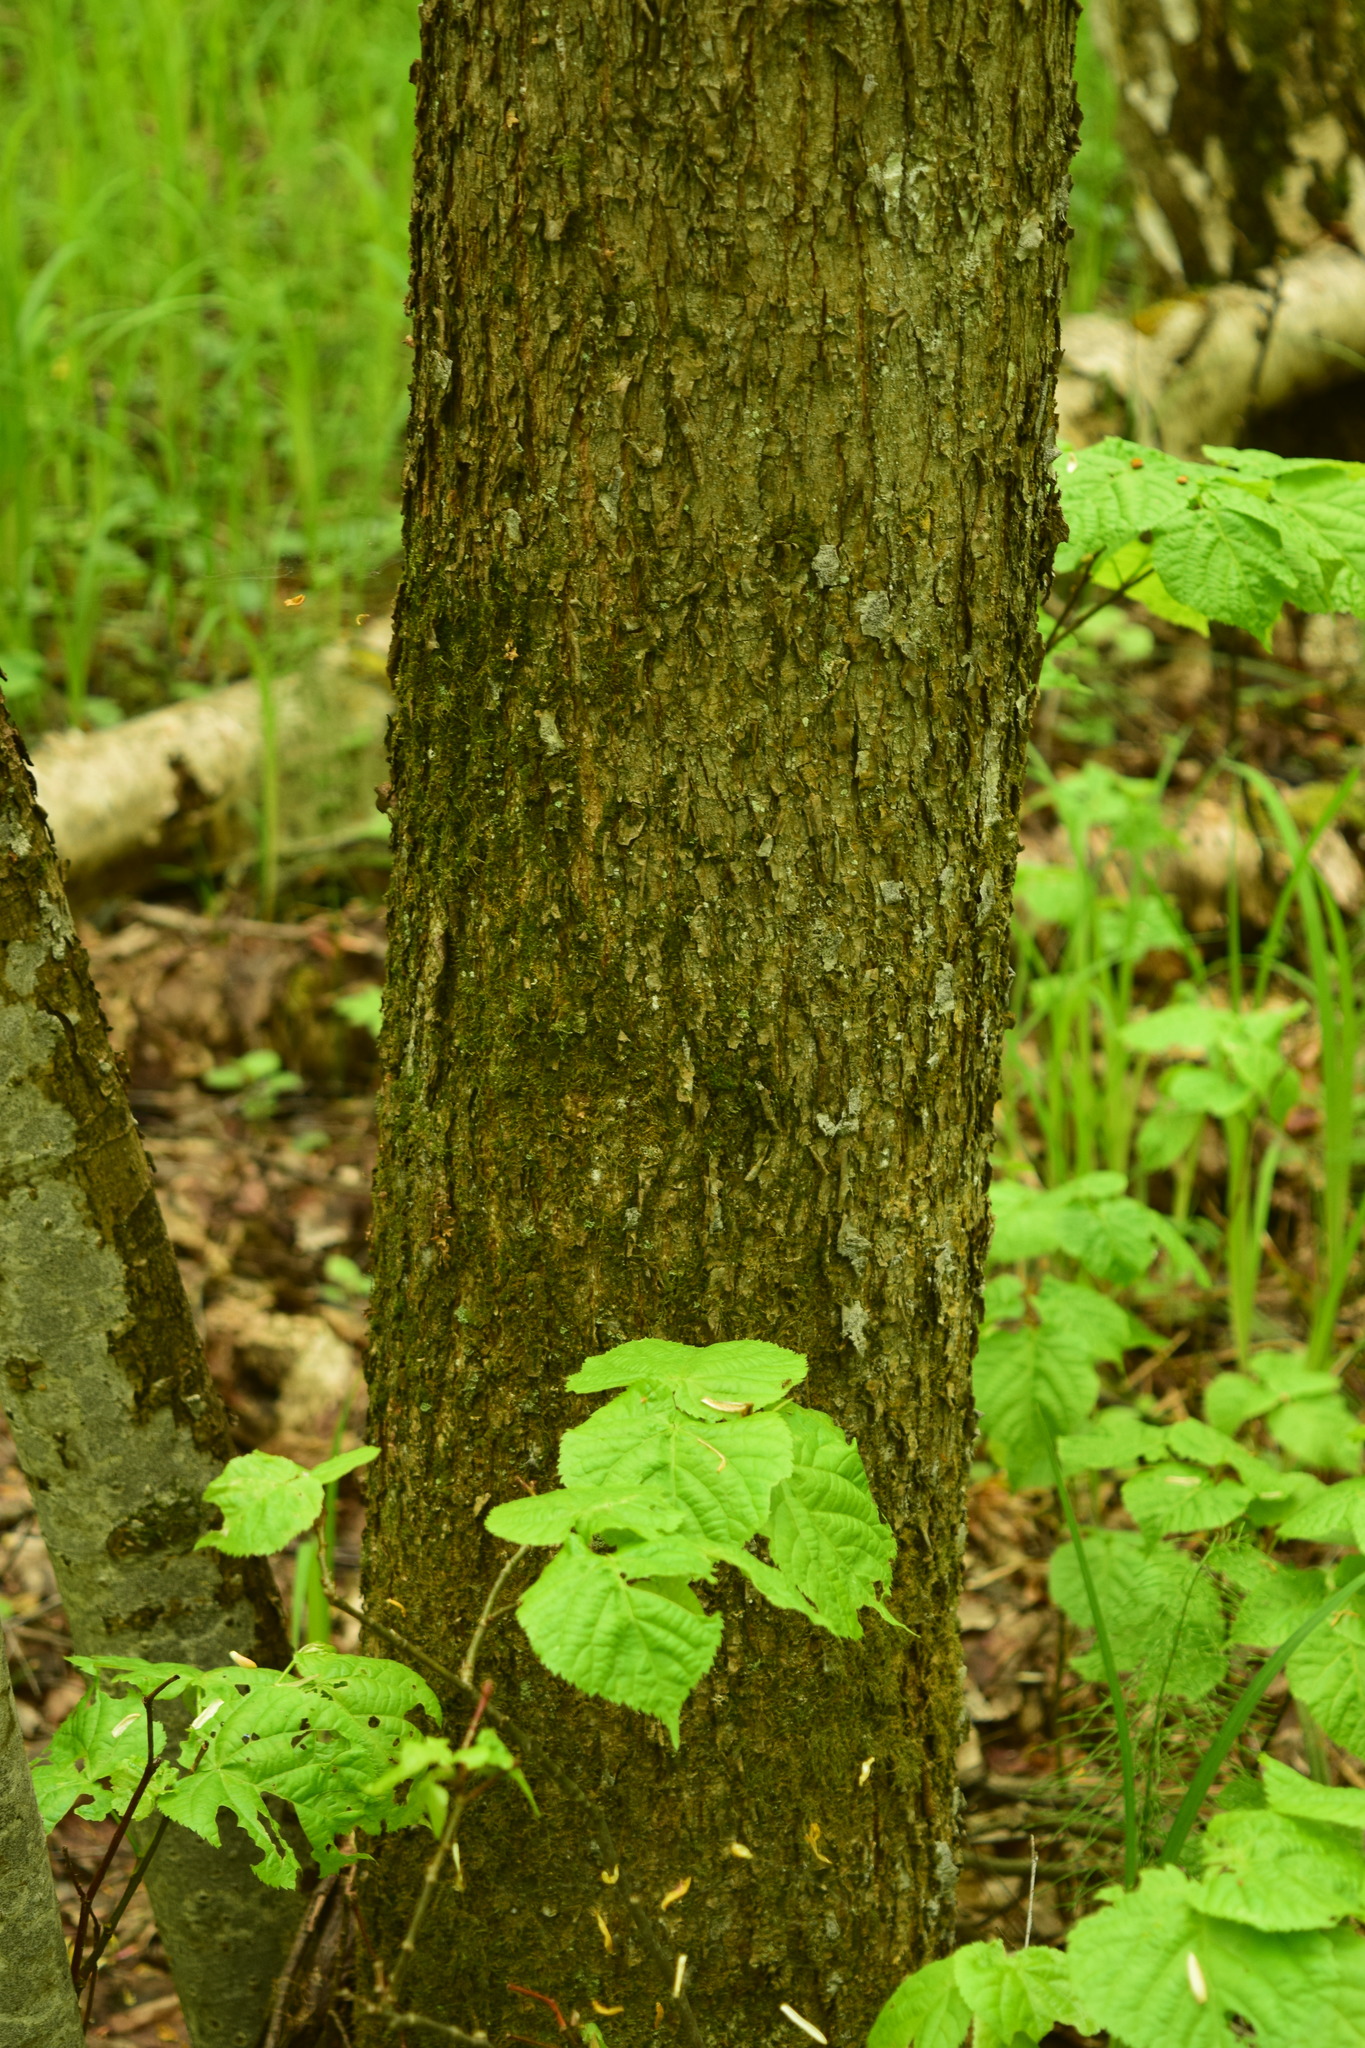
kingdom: Plantae
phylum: Tracheophyta
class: Magnoliopsida
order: Malvales
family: Malvaceae
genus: Tilia
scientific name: Tilia cordata
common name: Small-leaved lime
